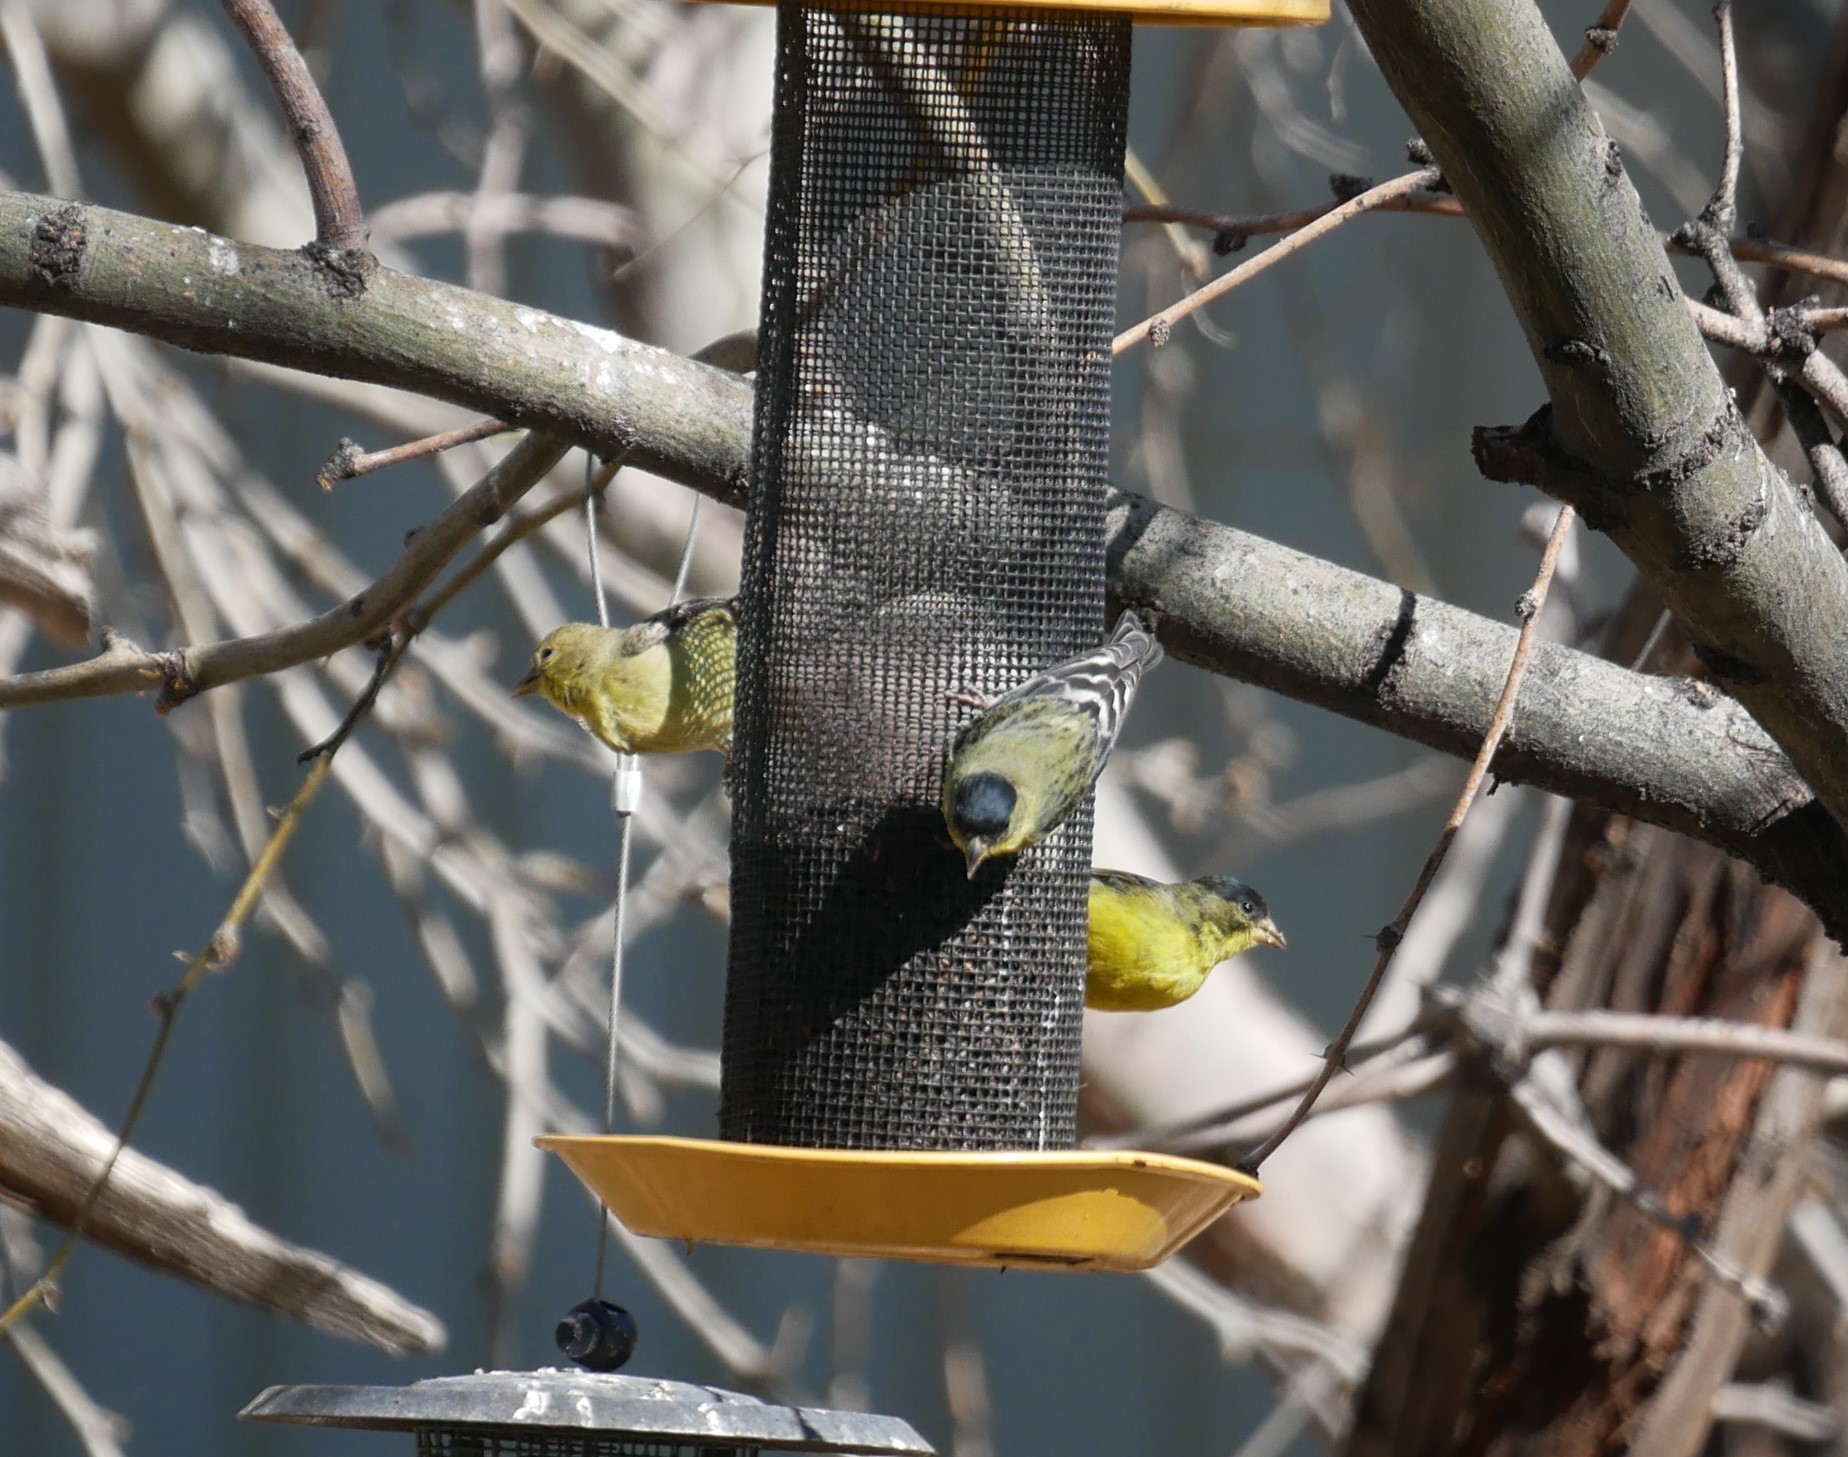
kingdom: Animalia
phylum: Chordata
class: Aves
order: Passeriformes
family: Fringillidae
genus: Spinus
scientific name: Spinus psaltria
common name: Lesser goldfinch
